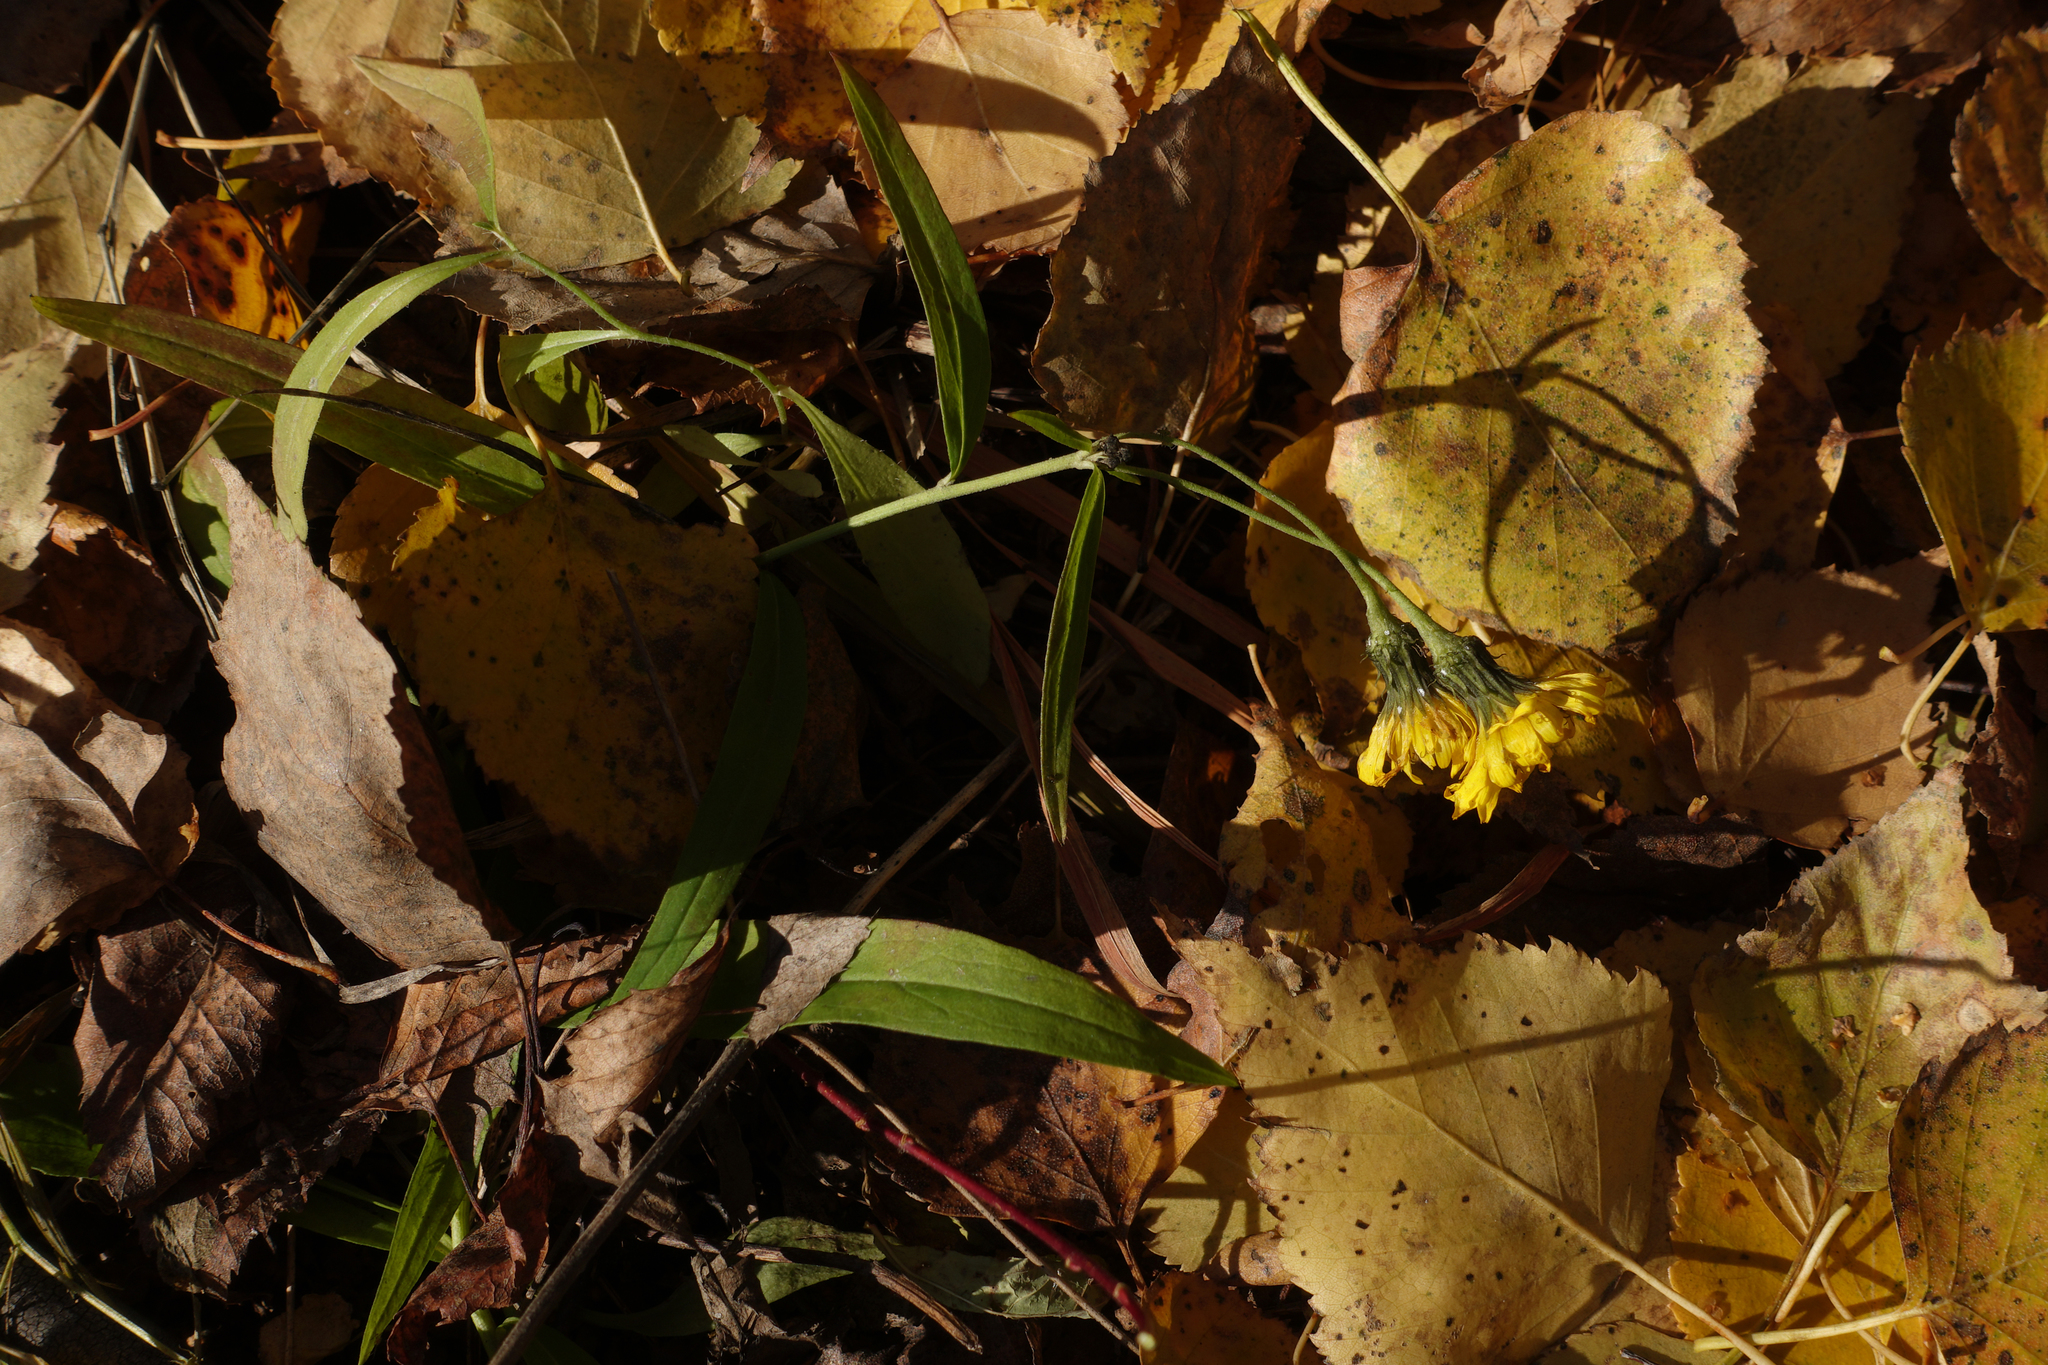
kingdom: Plantae
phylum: Tracheophyta
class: Magnoliopsida
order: Asterales
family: Asteraceae
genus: Hieracium
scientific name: Hieracium umbellatum
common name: Northern hawkweed
